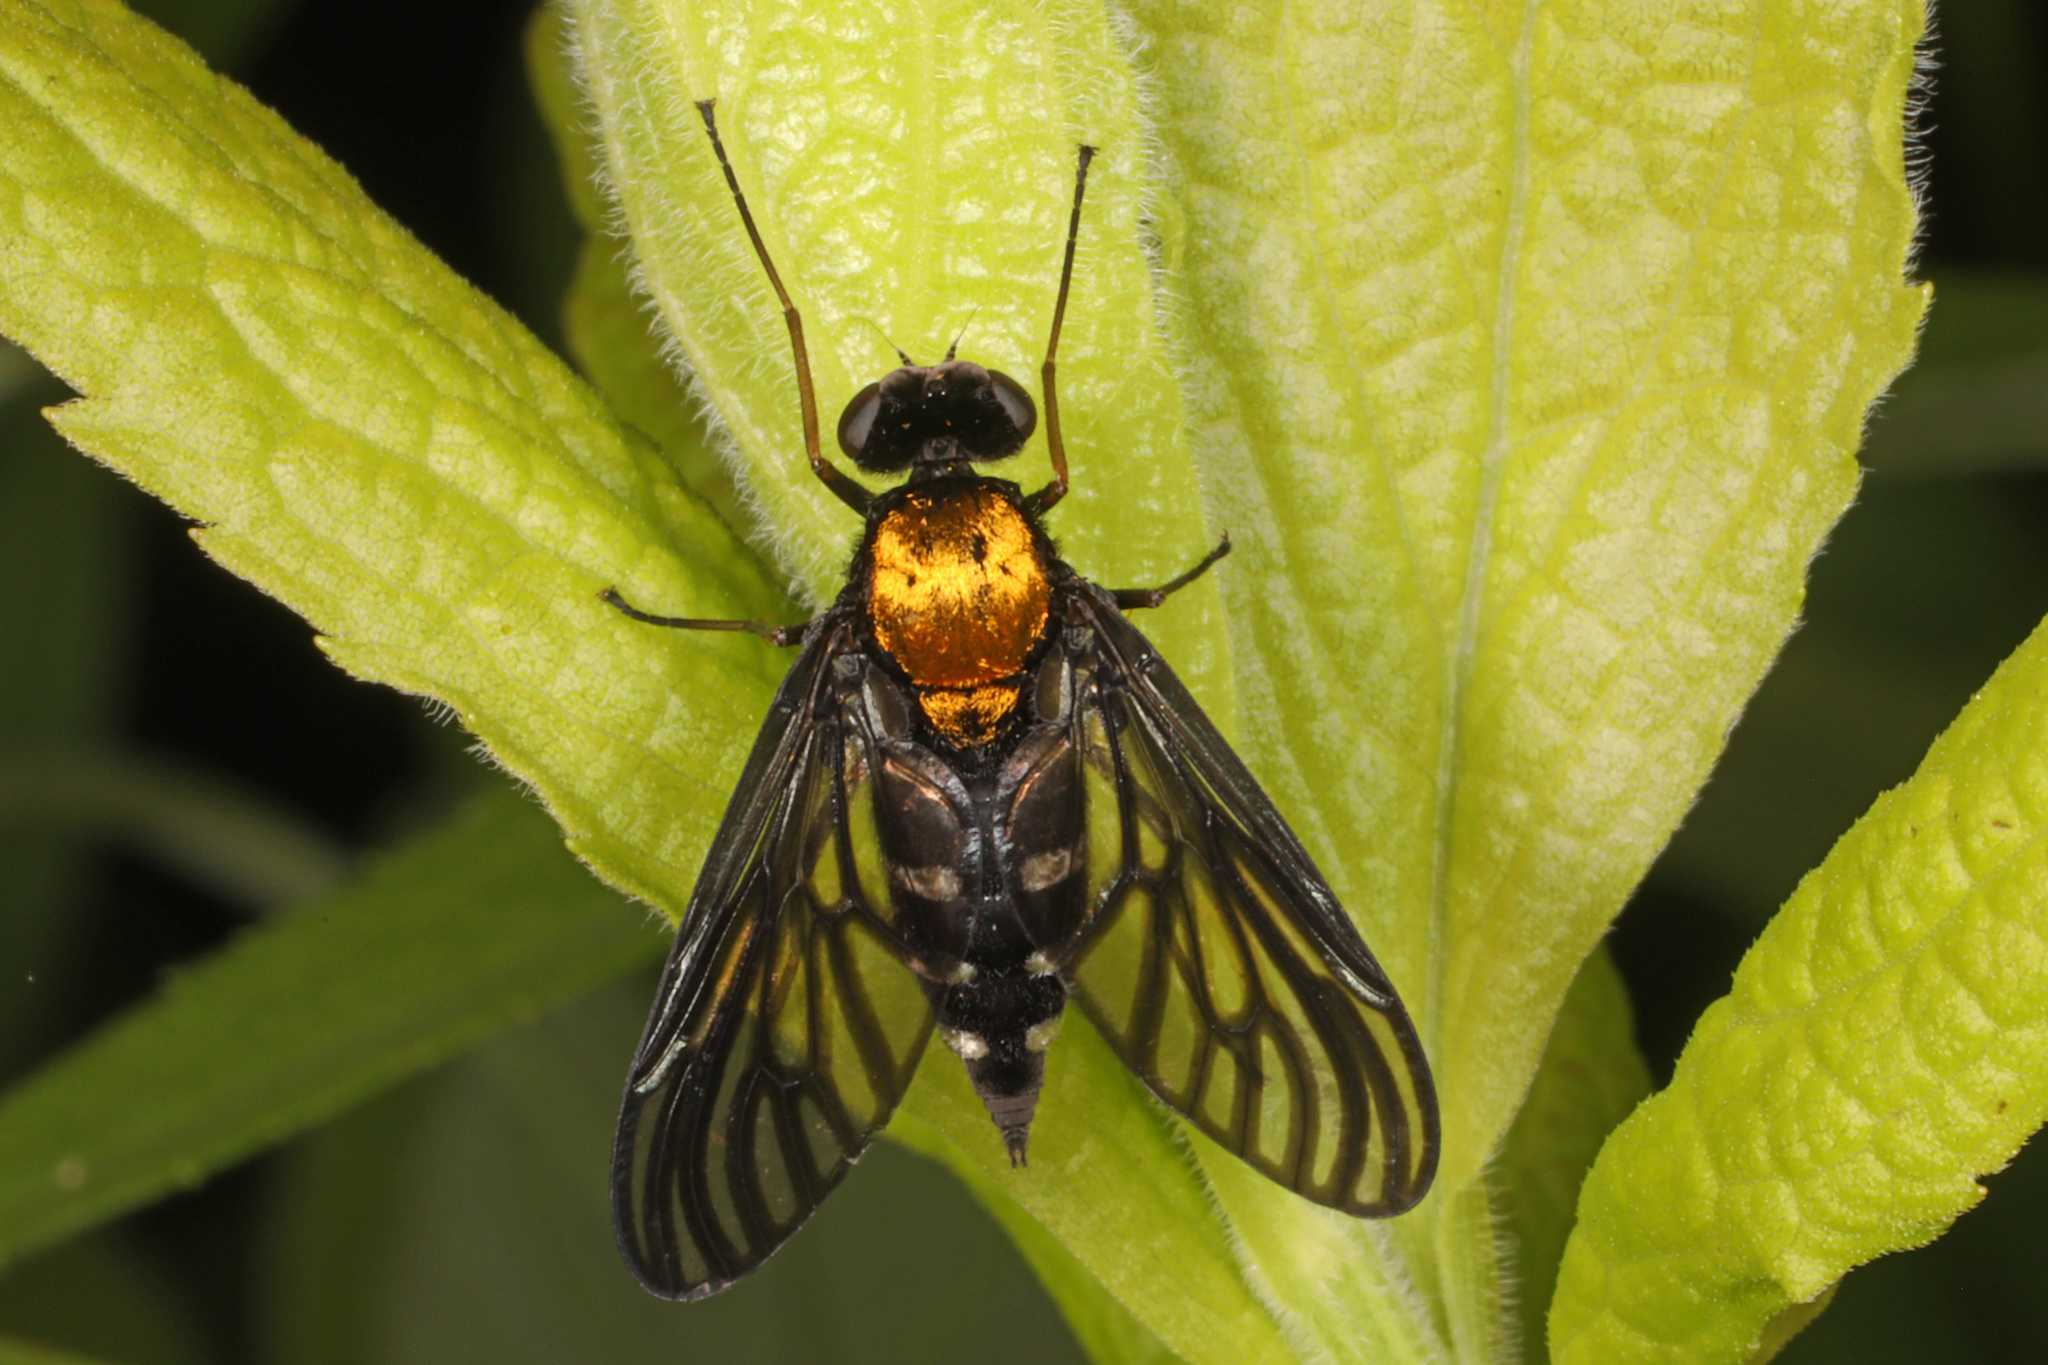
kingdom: Animalia
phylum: Arthropoda
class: Insecta
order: Diptera
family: Rhagionidae
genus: Chrysopilus
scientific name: Chrysopilus thoracicus
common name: Golden-backed snipe fly
